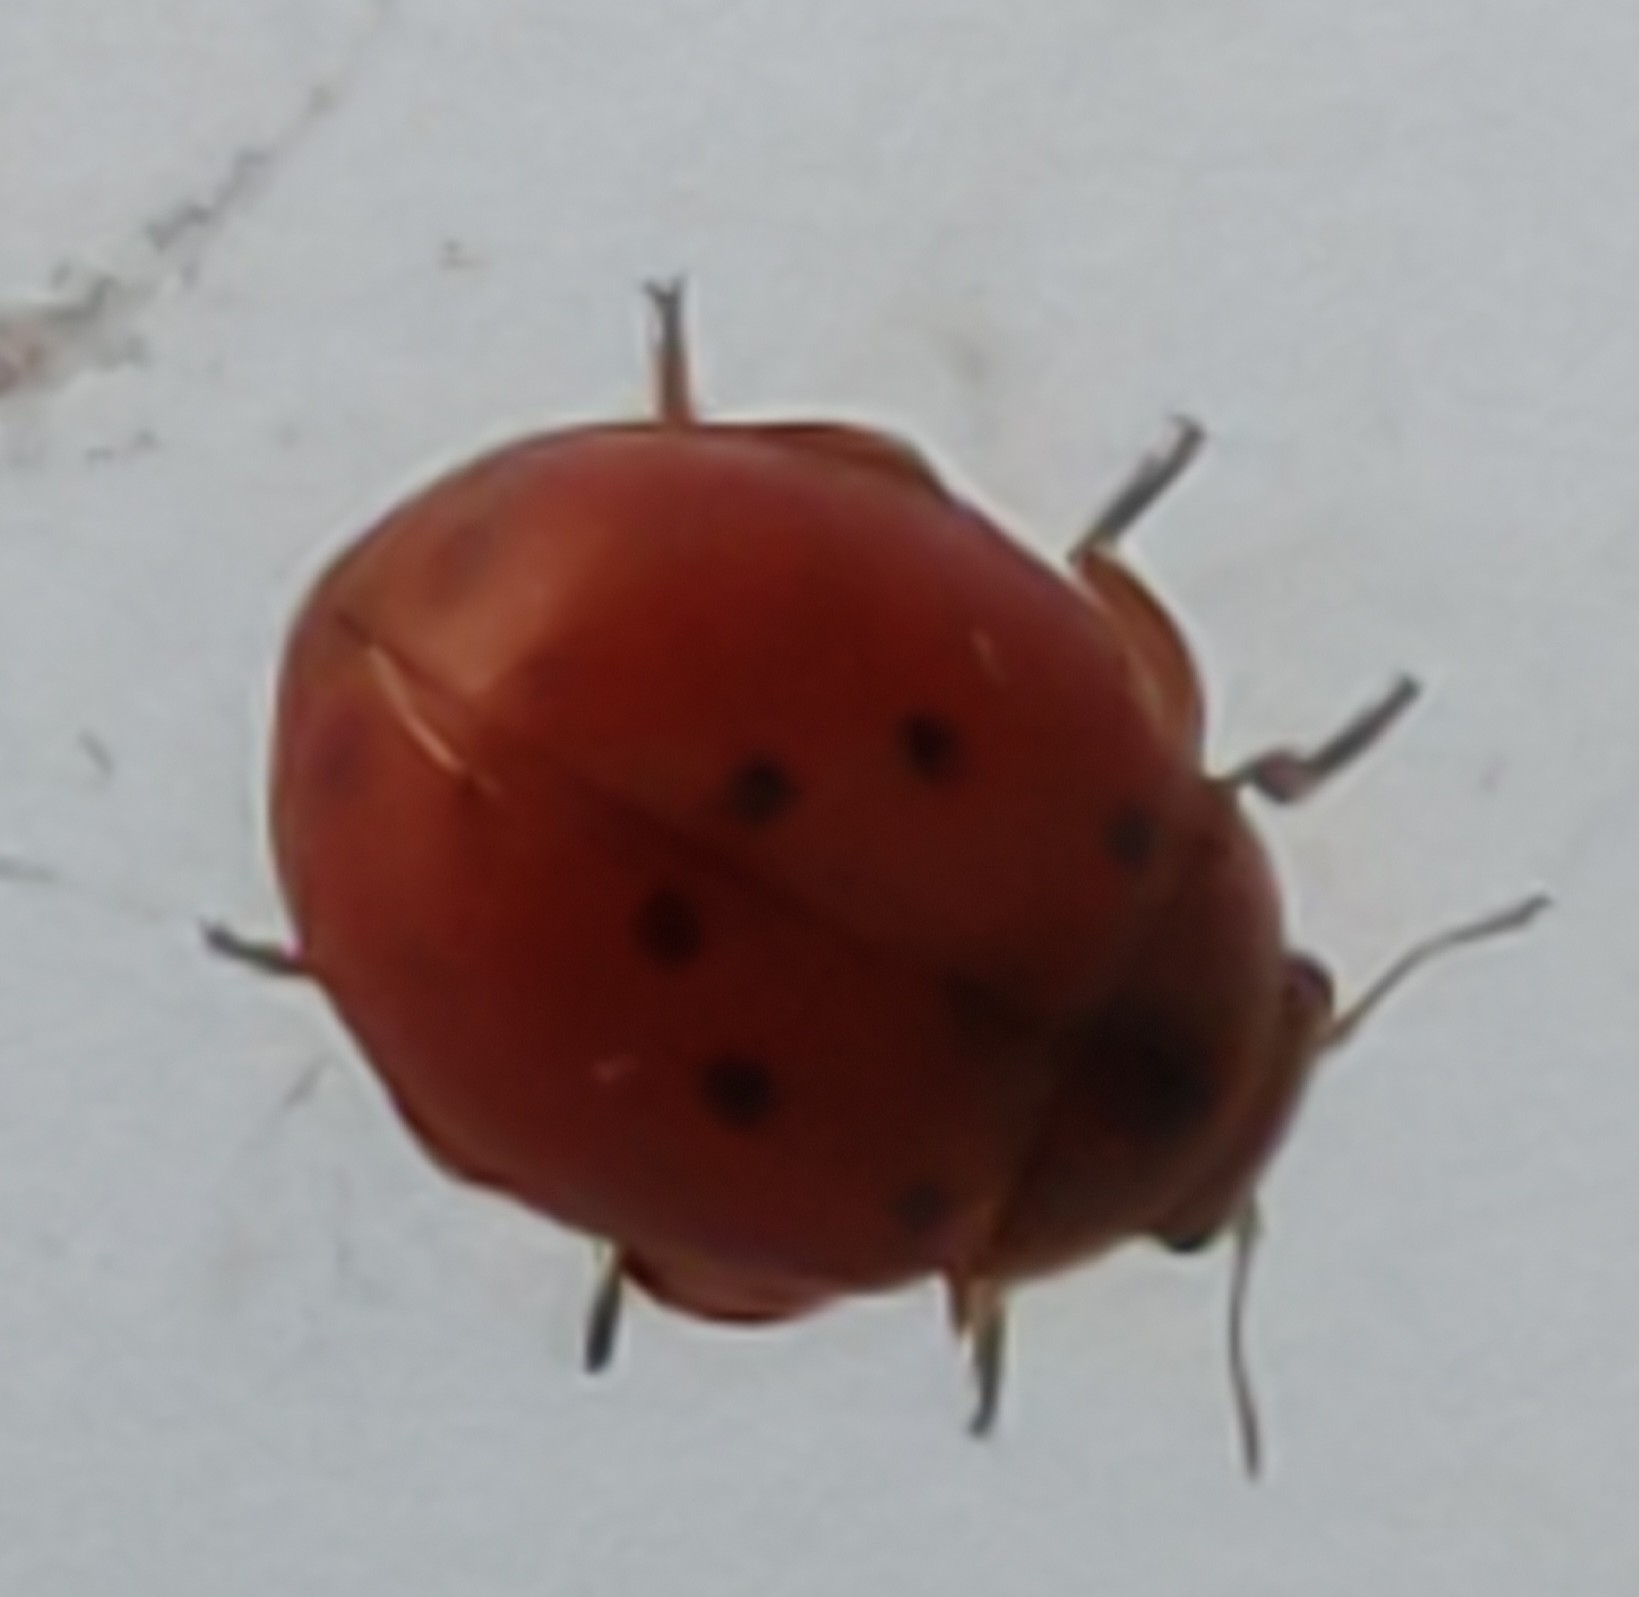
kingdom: Animalia
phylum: Arthropoda
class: Insecta
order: Coleoptera
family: Coccinellidae
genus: Subcoccinella
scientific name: Subcoccinella vigintiquatuorpunctata
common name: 24-spot ladybird
